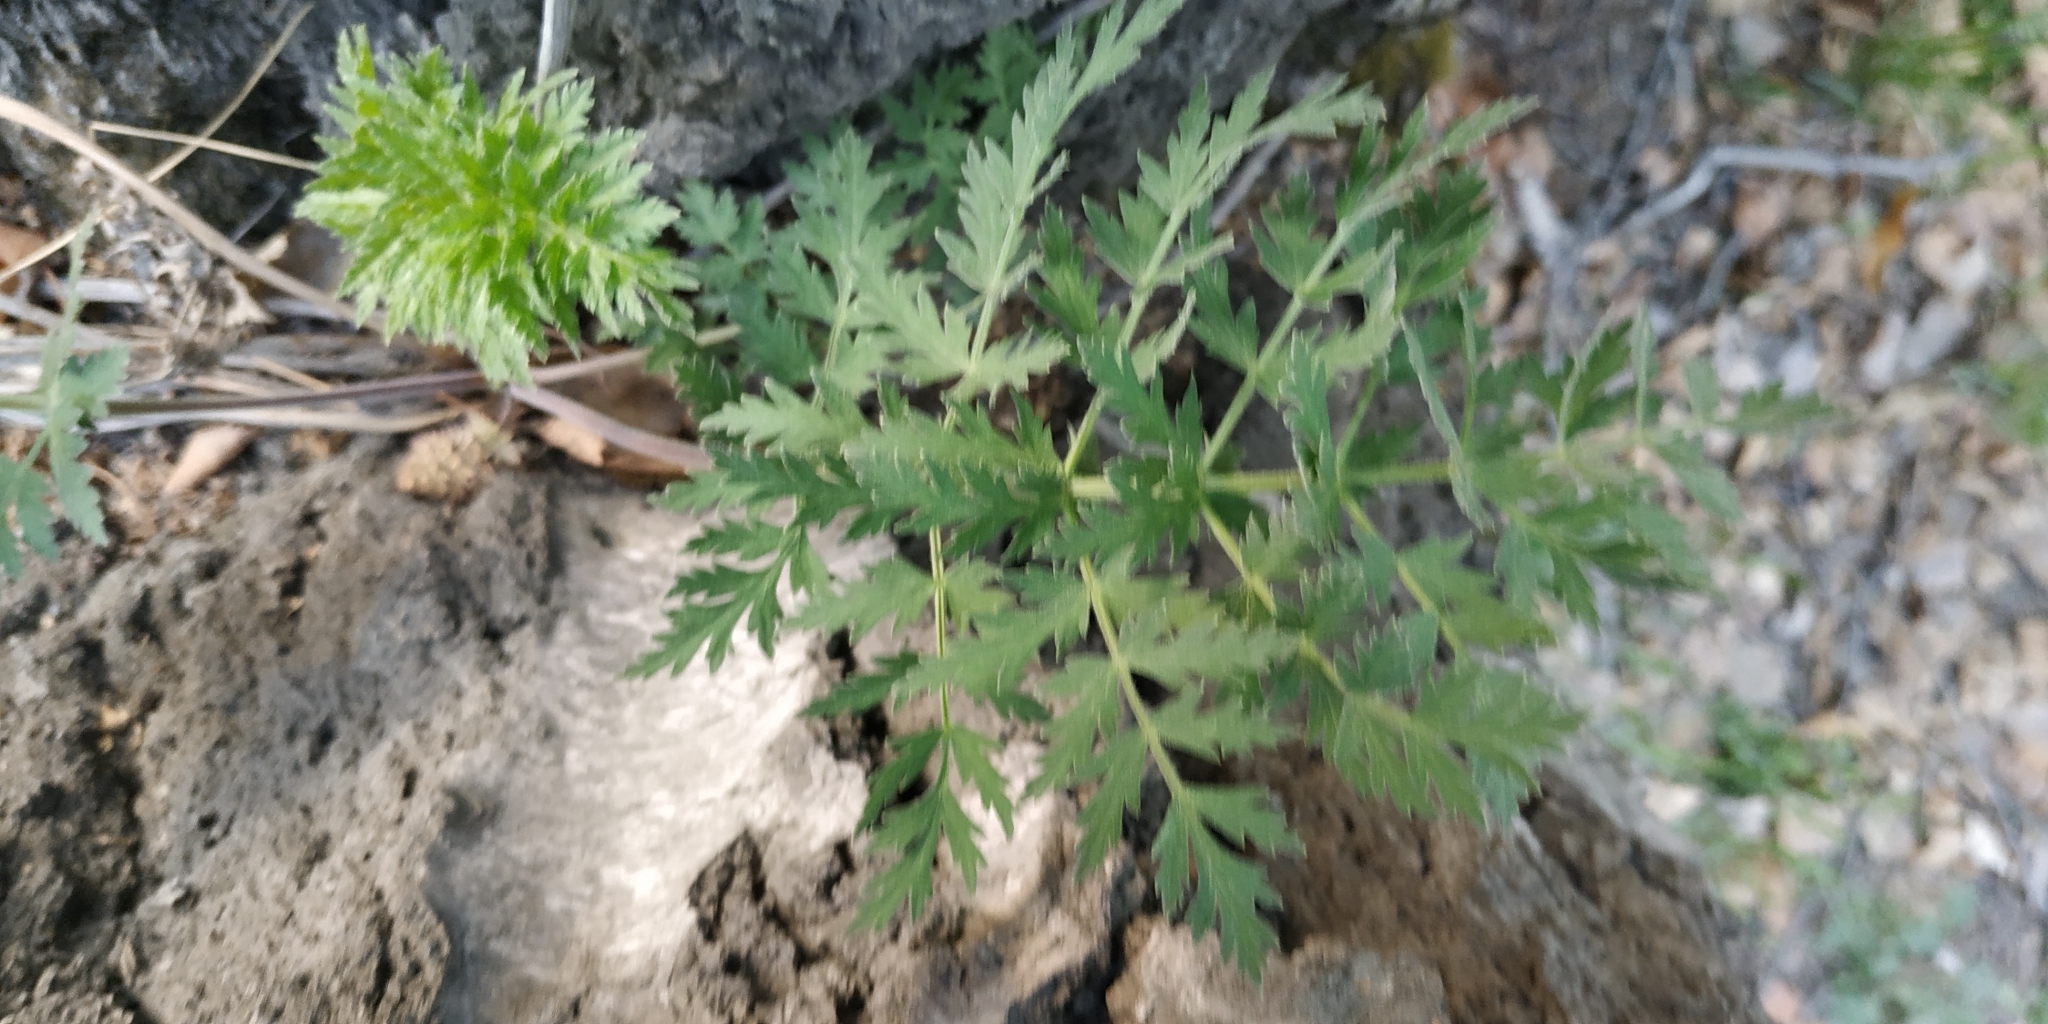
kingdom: Plantae
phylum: Tracheophyta
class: Magnoliopsida
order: Apiales
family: Apiaceae
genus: Seseli
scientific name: Seseli libanotis
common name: Mooncarrot
